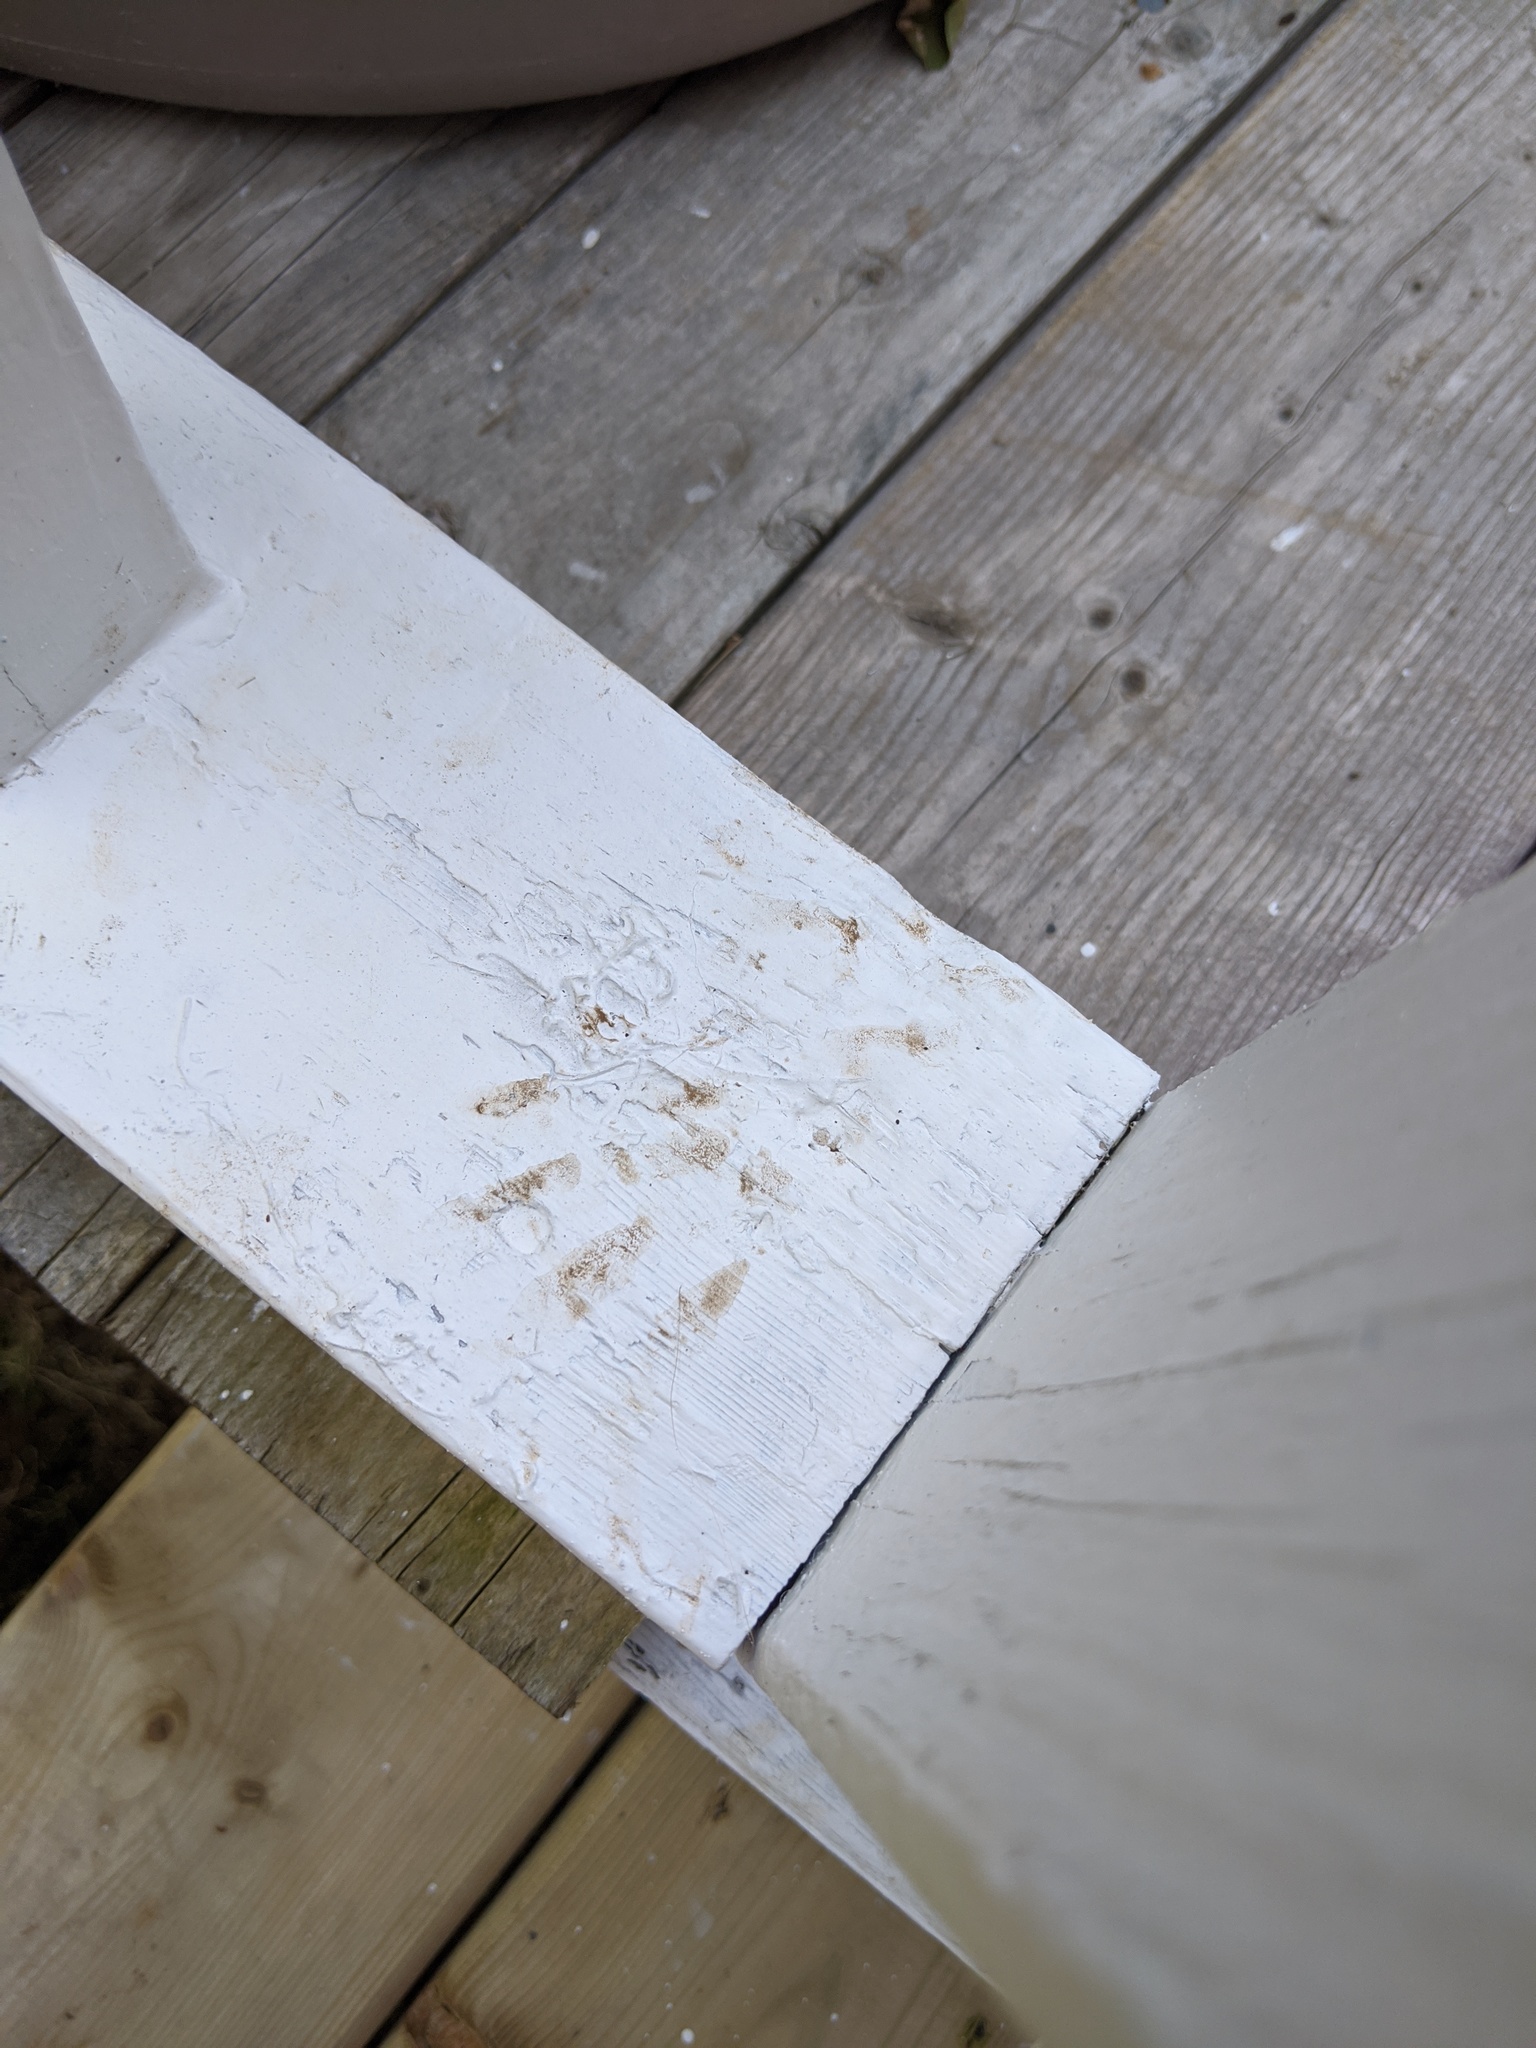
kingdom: Animalia
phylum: Chordata
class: Mammalia
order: Carnivora
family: Procyonidae
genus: Procyon
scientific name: Procyon lotor
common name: Raccoon
